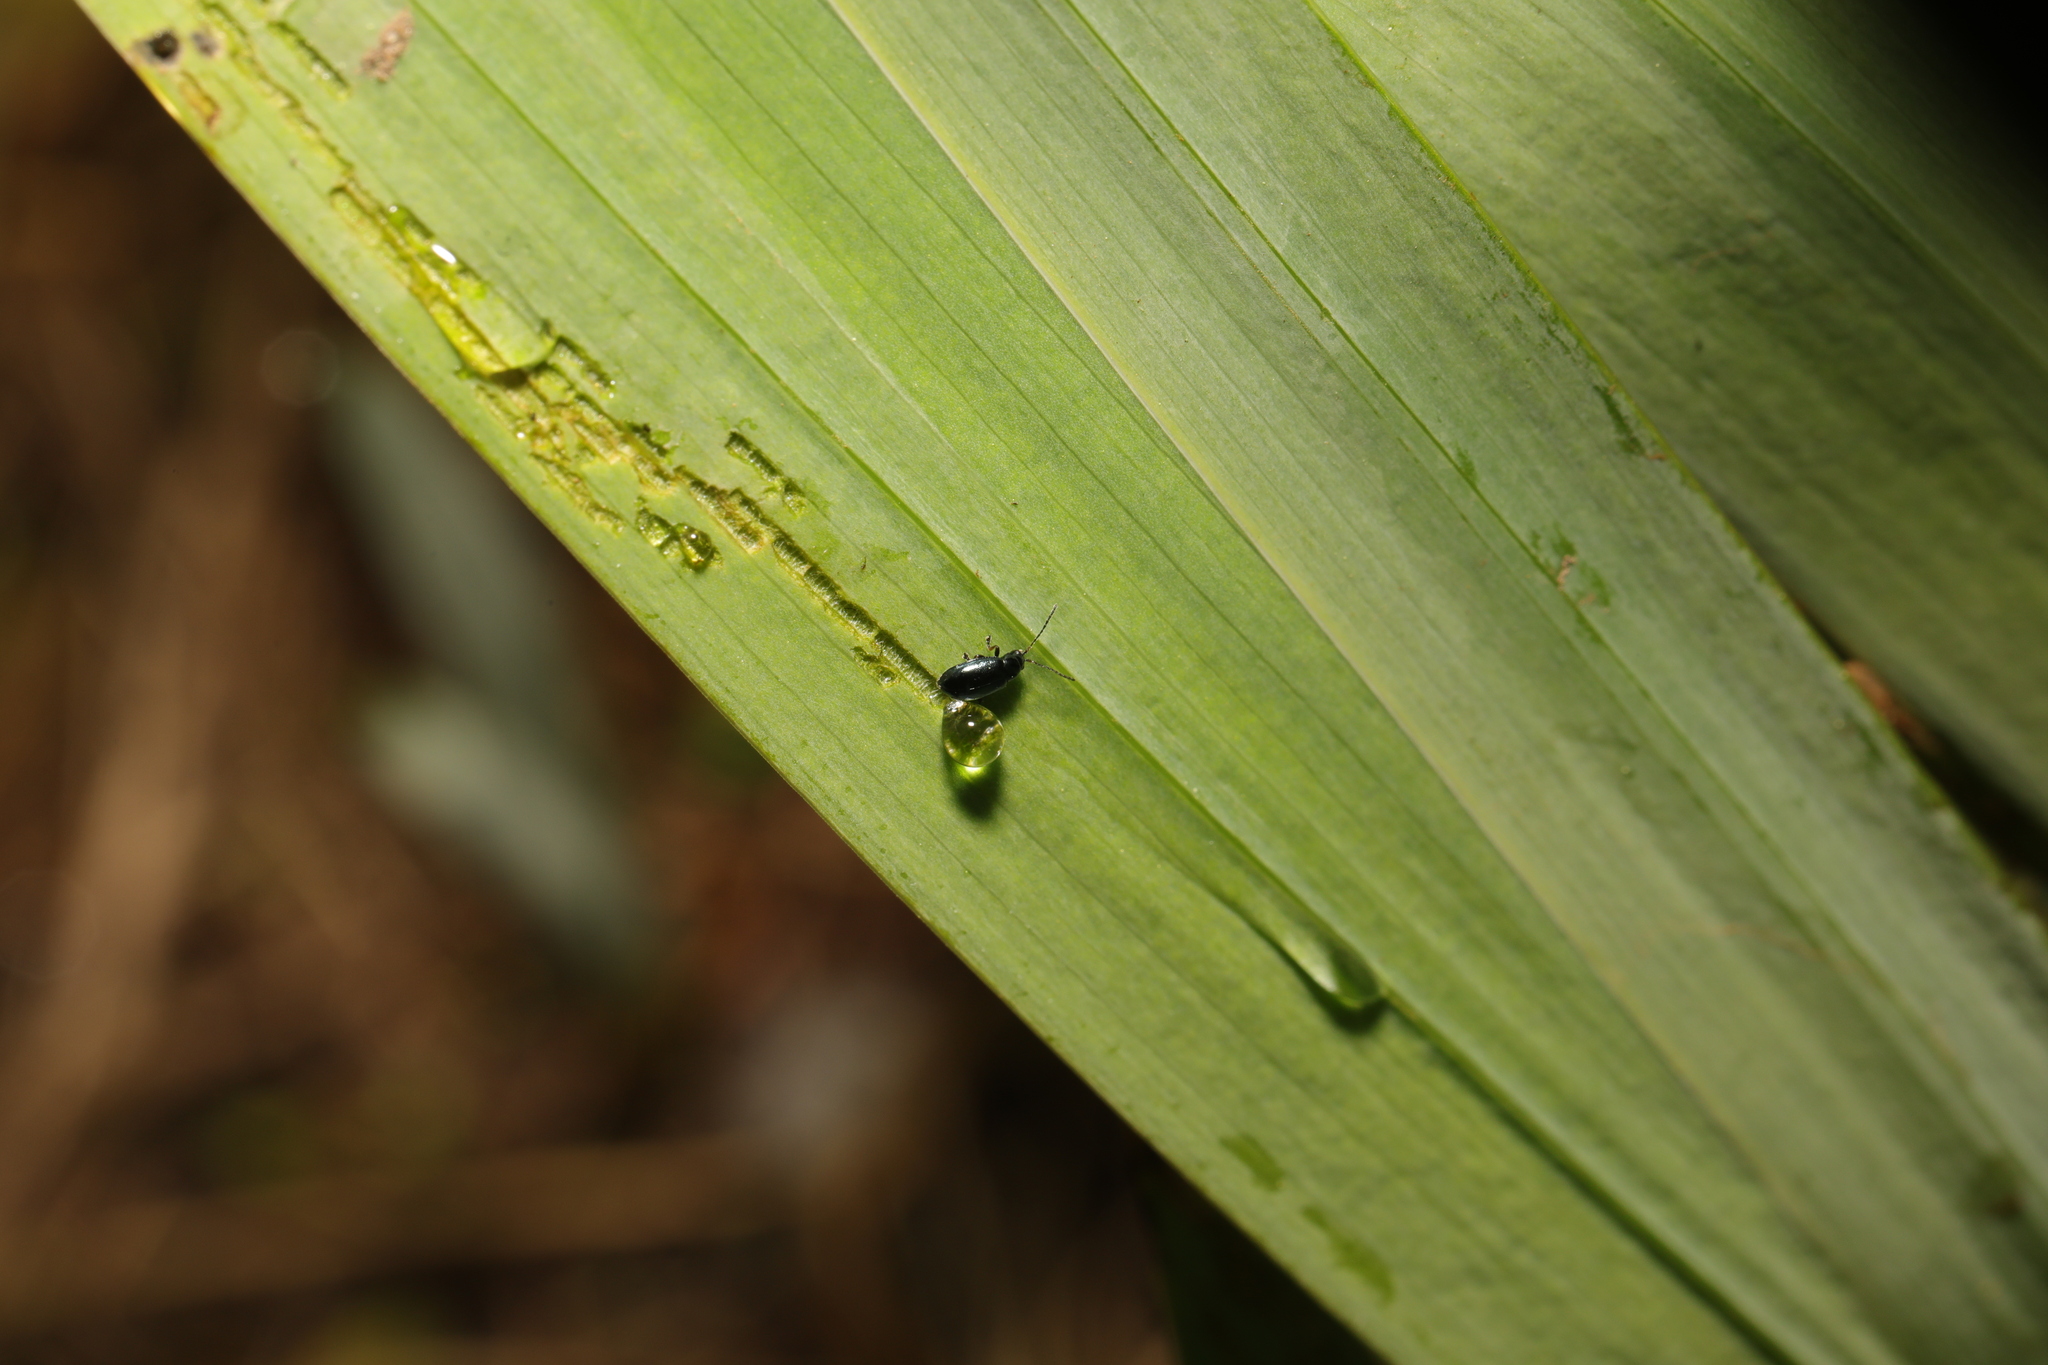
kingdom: Animalia
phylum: Arthropoda
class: Insecta
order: Coleoptera
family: Chrysomelidae
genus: Aphthona
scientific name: Aphthona nonstriata
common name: Iris flea beetle
